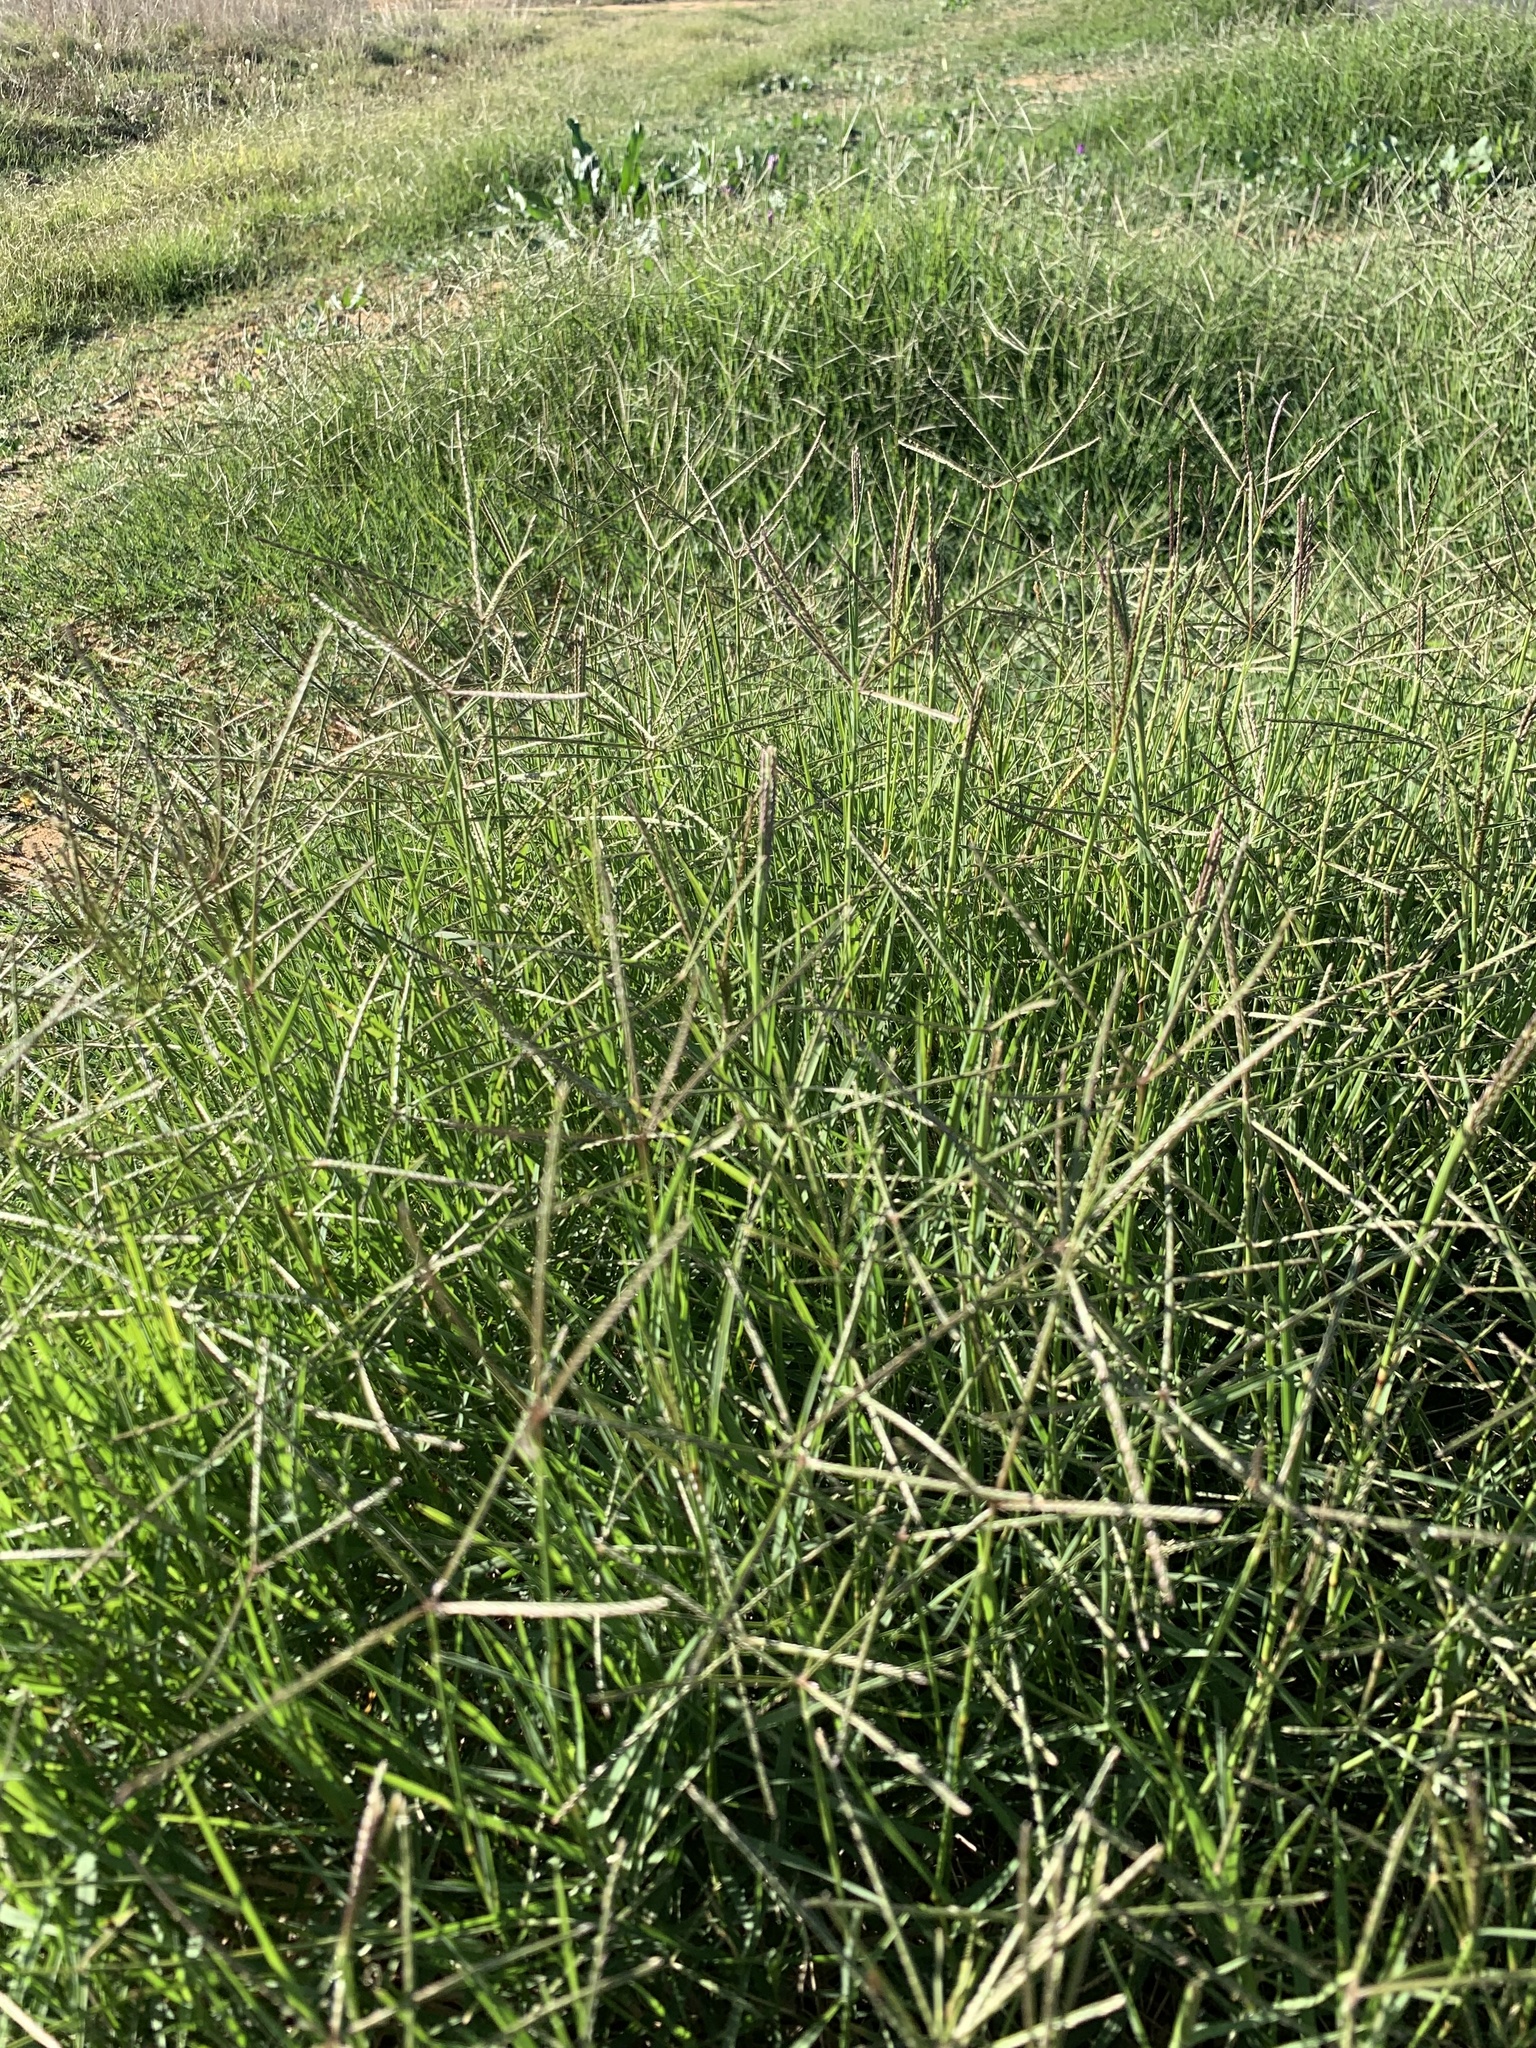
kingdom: Plantae
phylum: Tracheophyta
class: Liliopsida
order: Poales
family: Poaceae
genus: Cenchrus
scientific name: Cenchrus clandestinus
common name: Kikuyugrass
